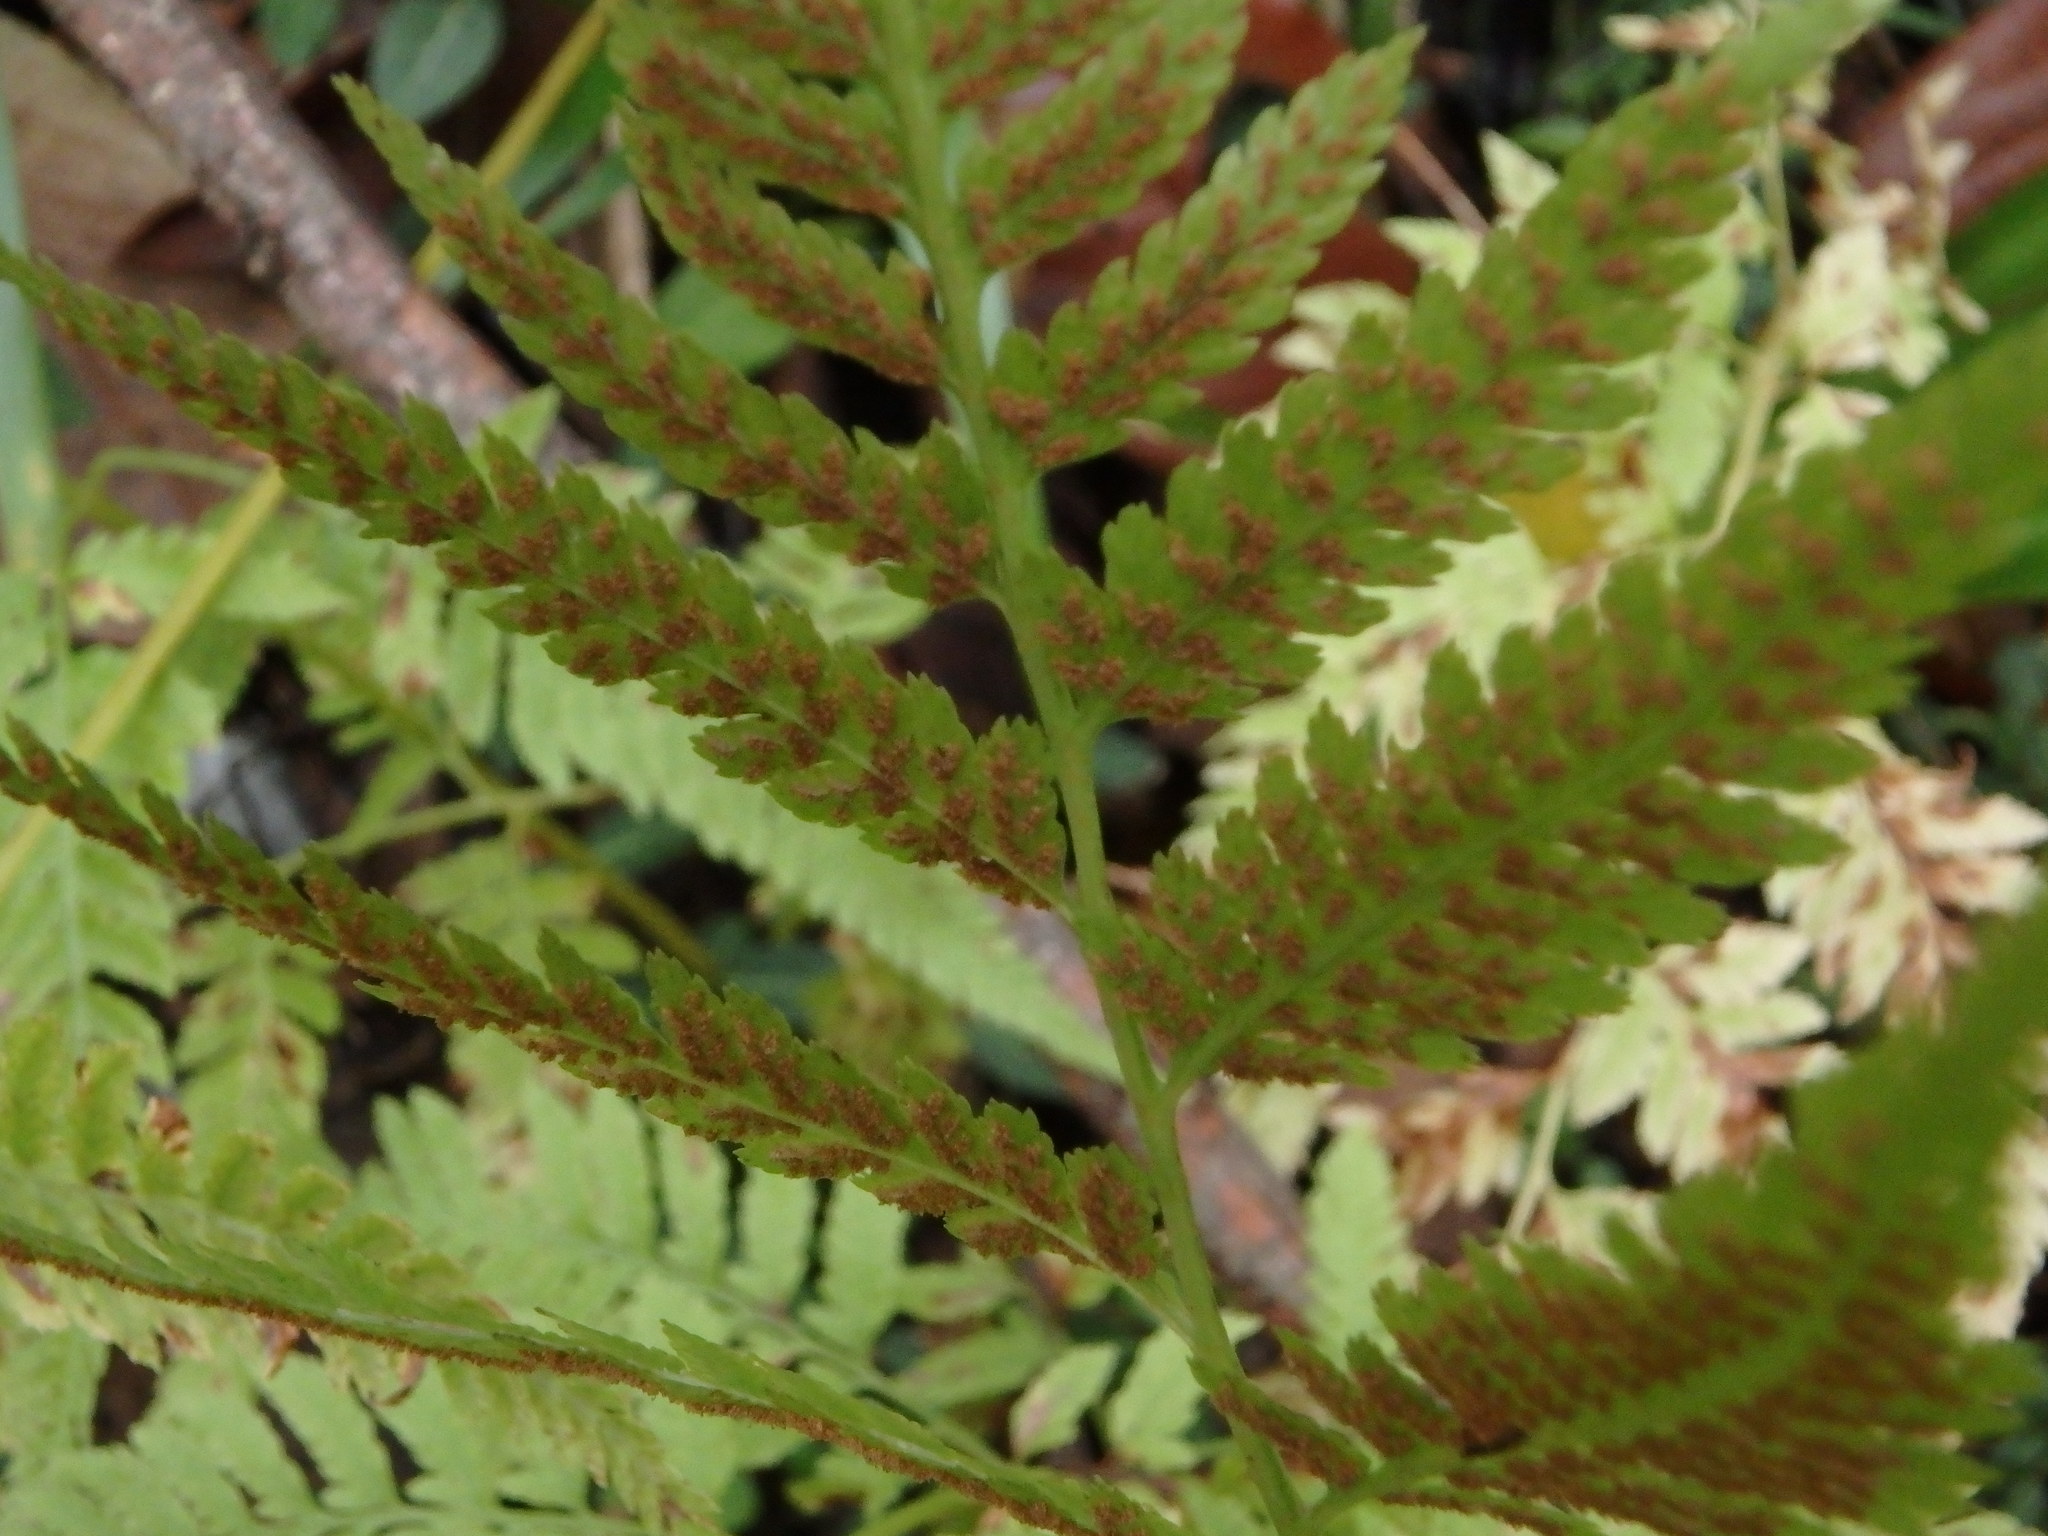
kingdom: Plantae
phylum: Tracheophyta
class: Polypodiopsida
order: Polypodiales
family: Athyriaceae
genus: Anisocampium
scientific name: Anisocampium niponicum
